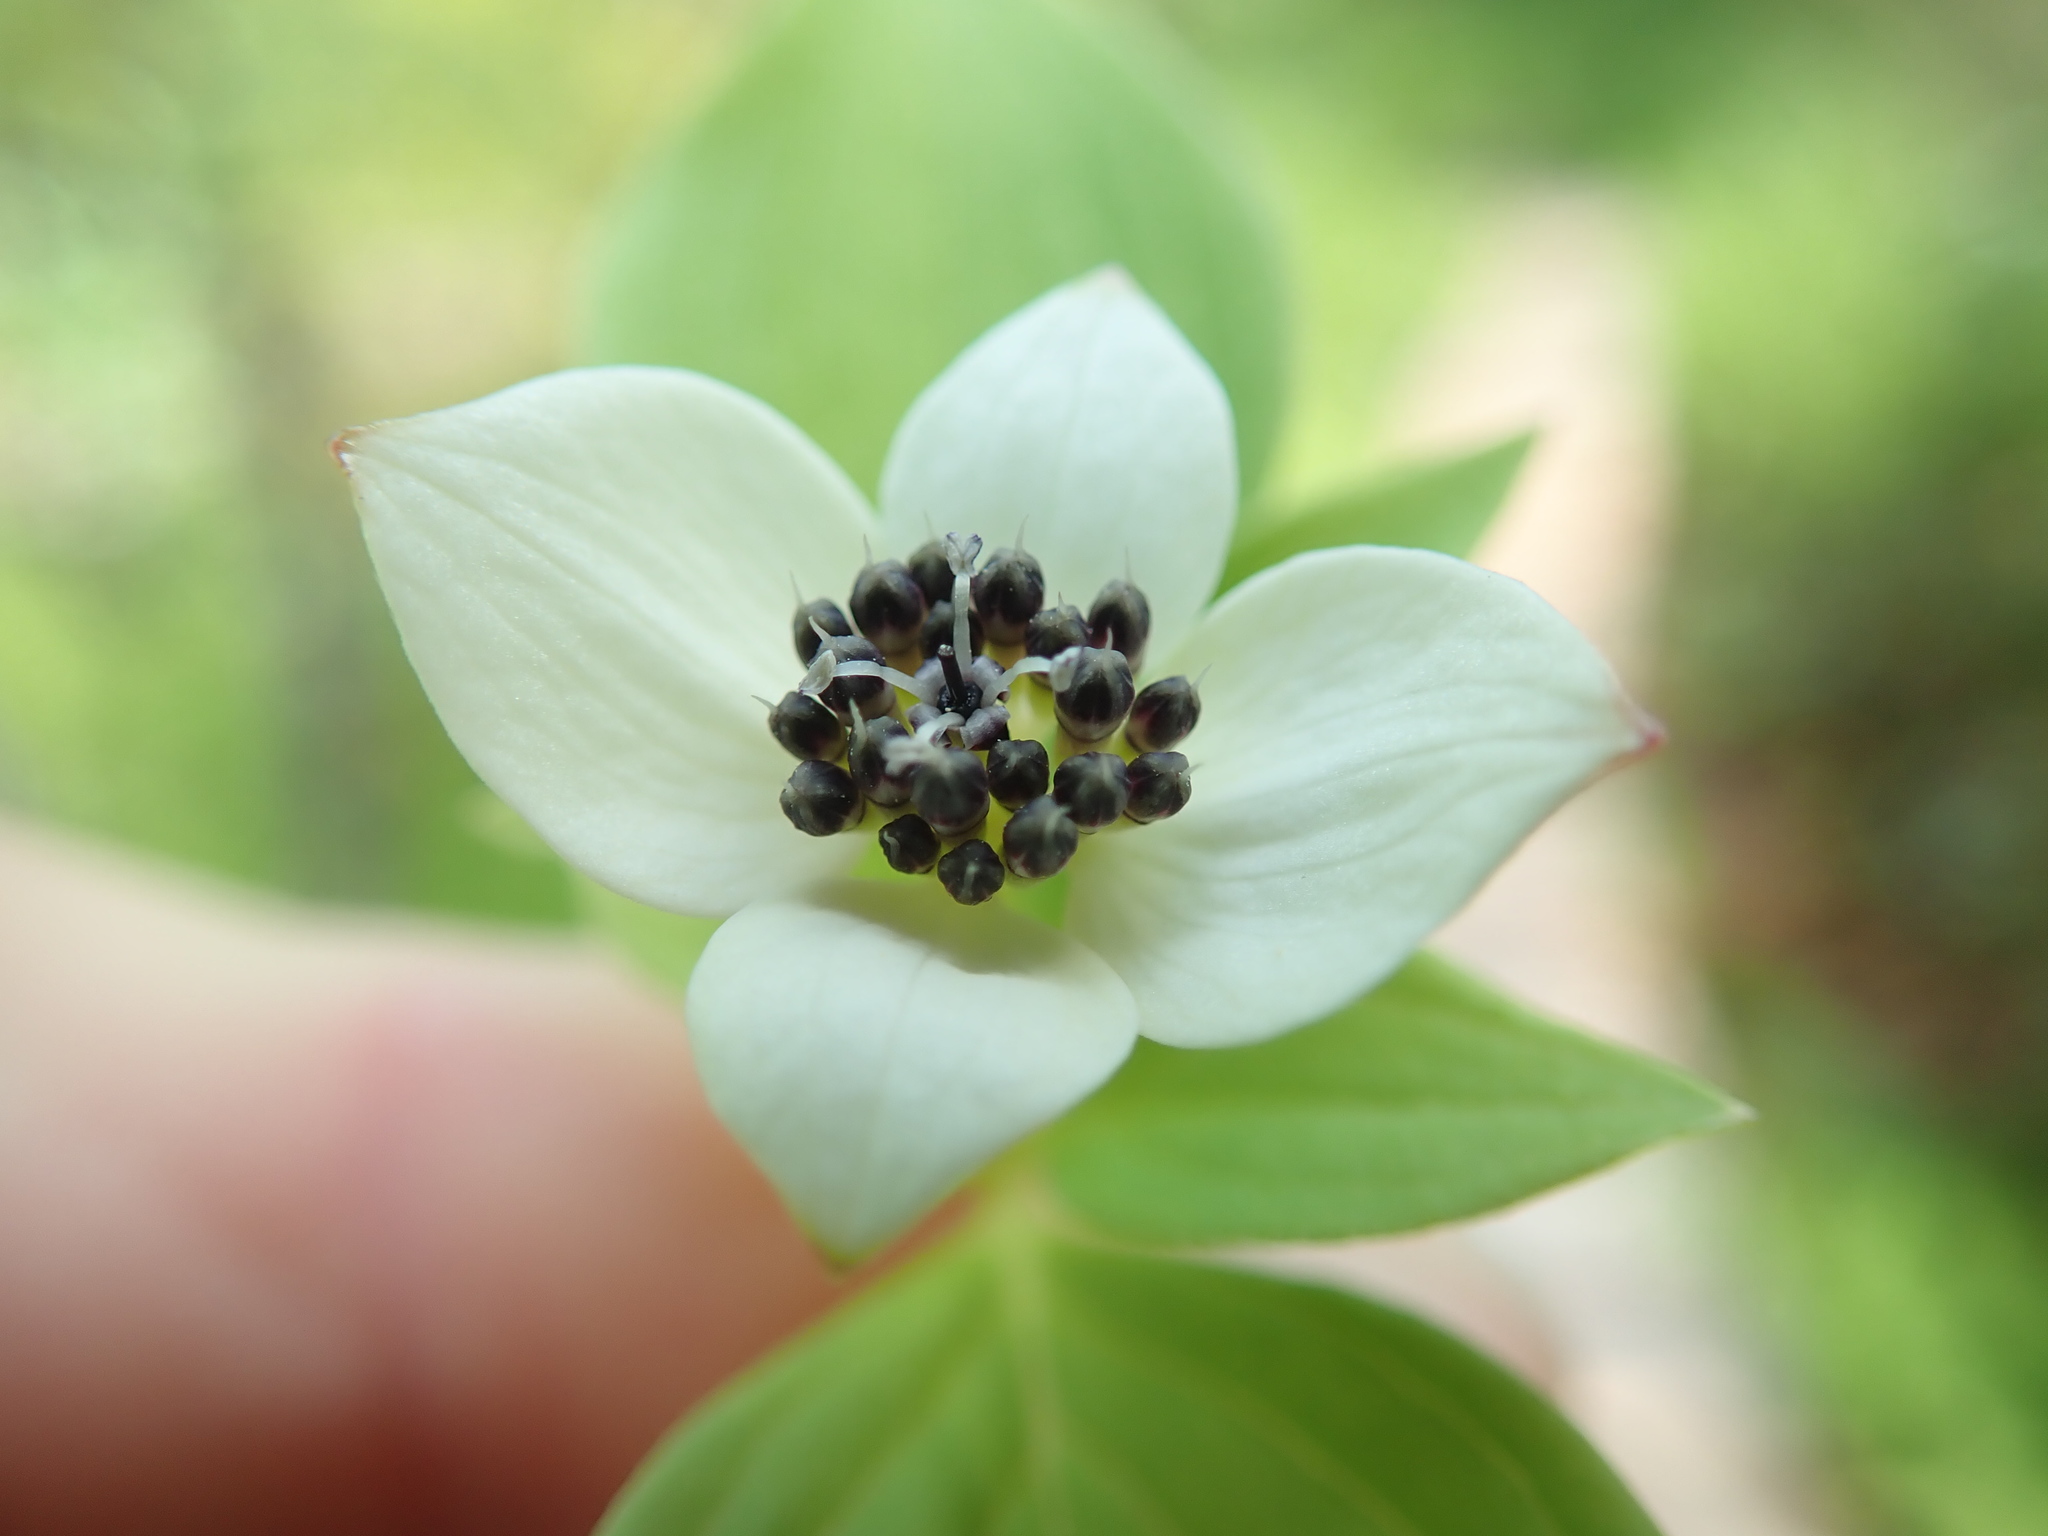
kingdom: Plantae
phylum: Tracheophyta
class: Magnoliopsida
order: Cornales
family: Cornaceae
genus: Cornus
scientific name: Cornus unalaschkensis
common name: Alaska bunchberry
